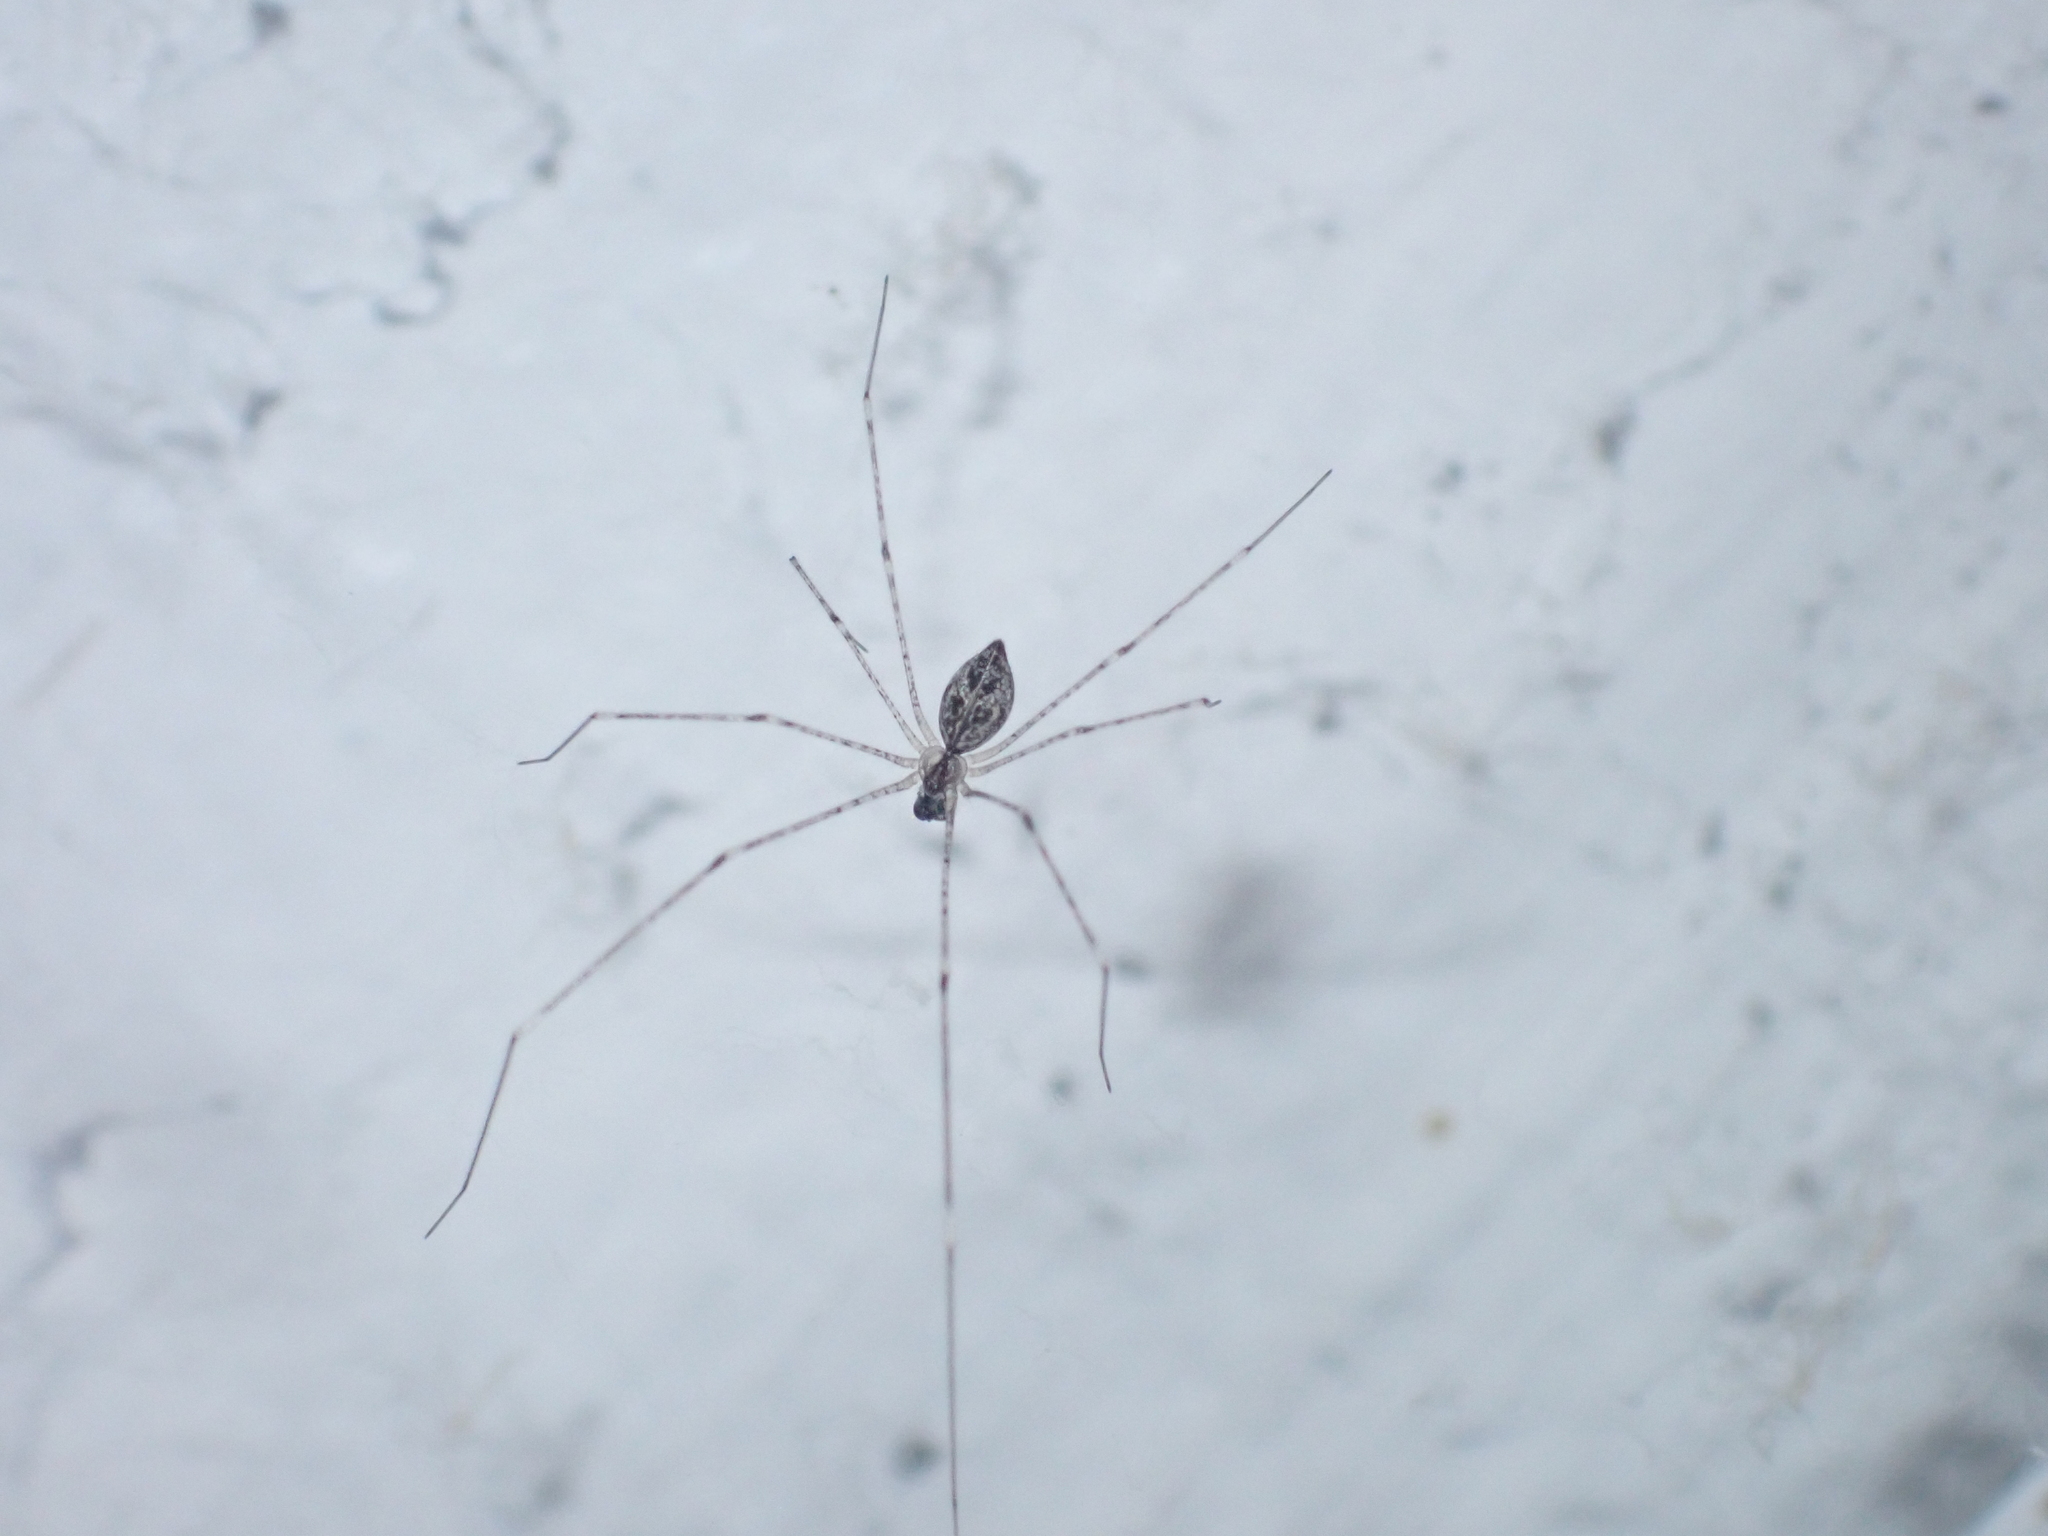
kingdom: Animalia
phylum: Arthropoda
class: Arachnida
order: Araneae
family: Pholcidae
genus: Crossopriza
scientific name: Crossopriza lyoni
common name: Cellar spiders
